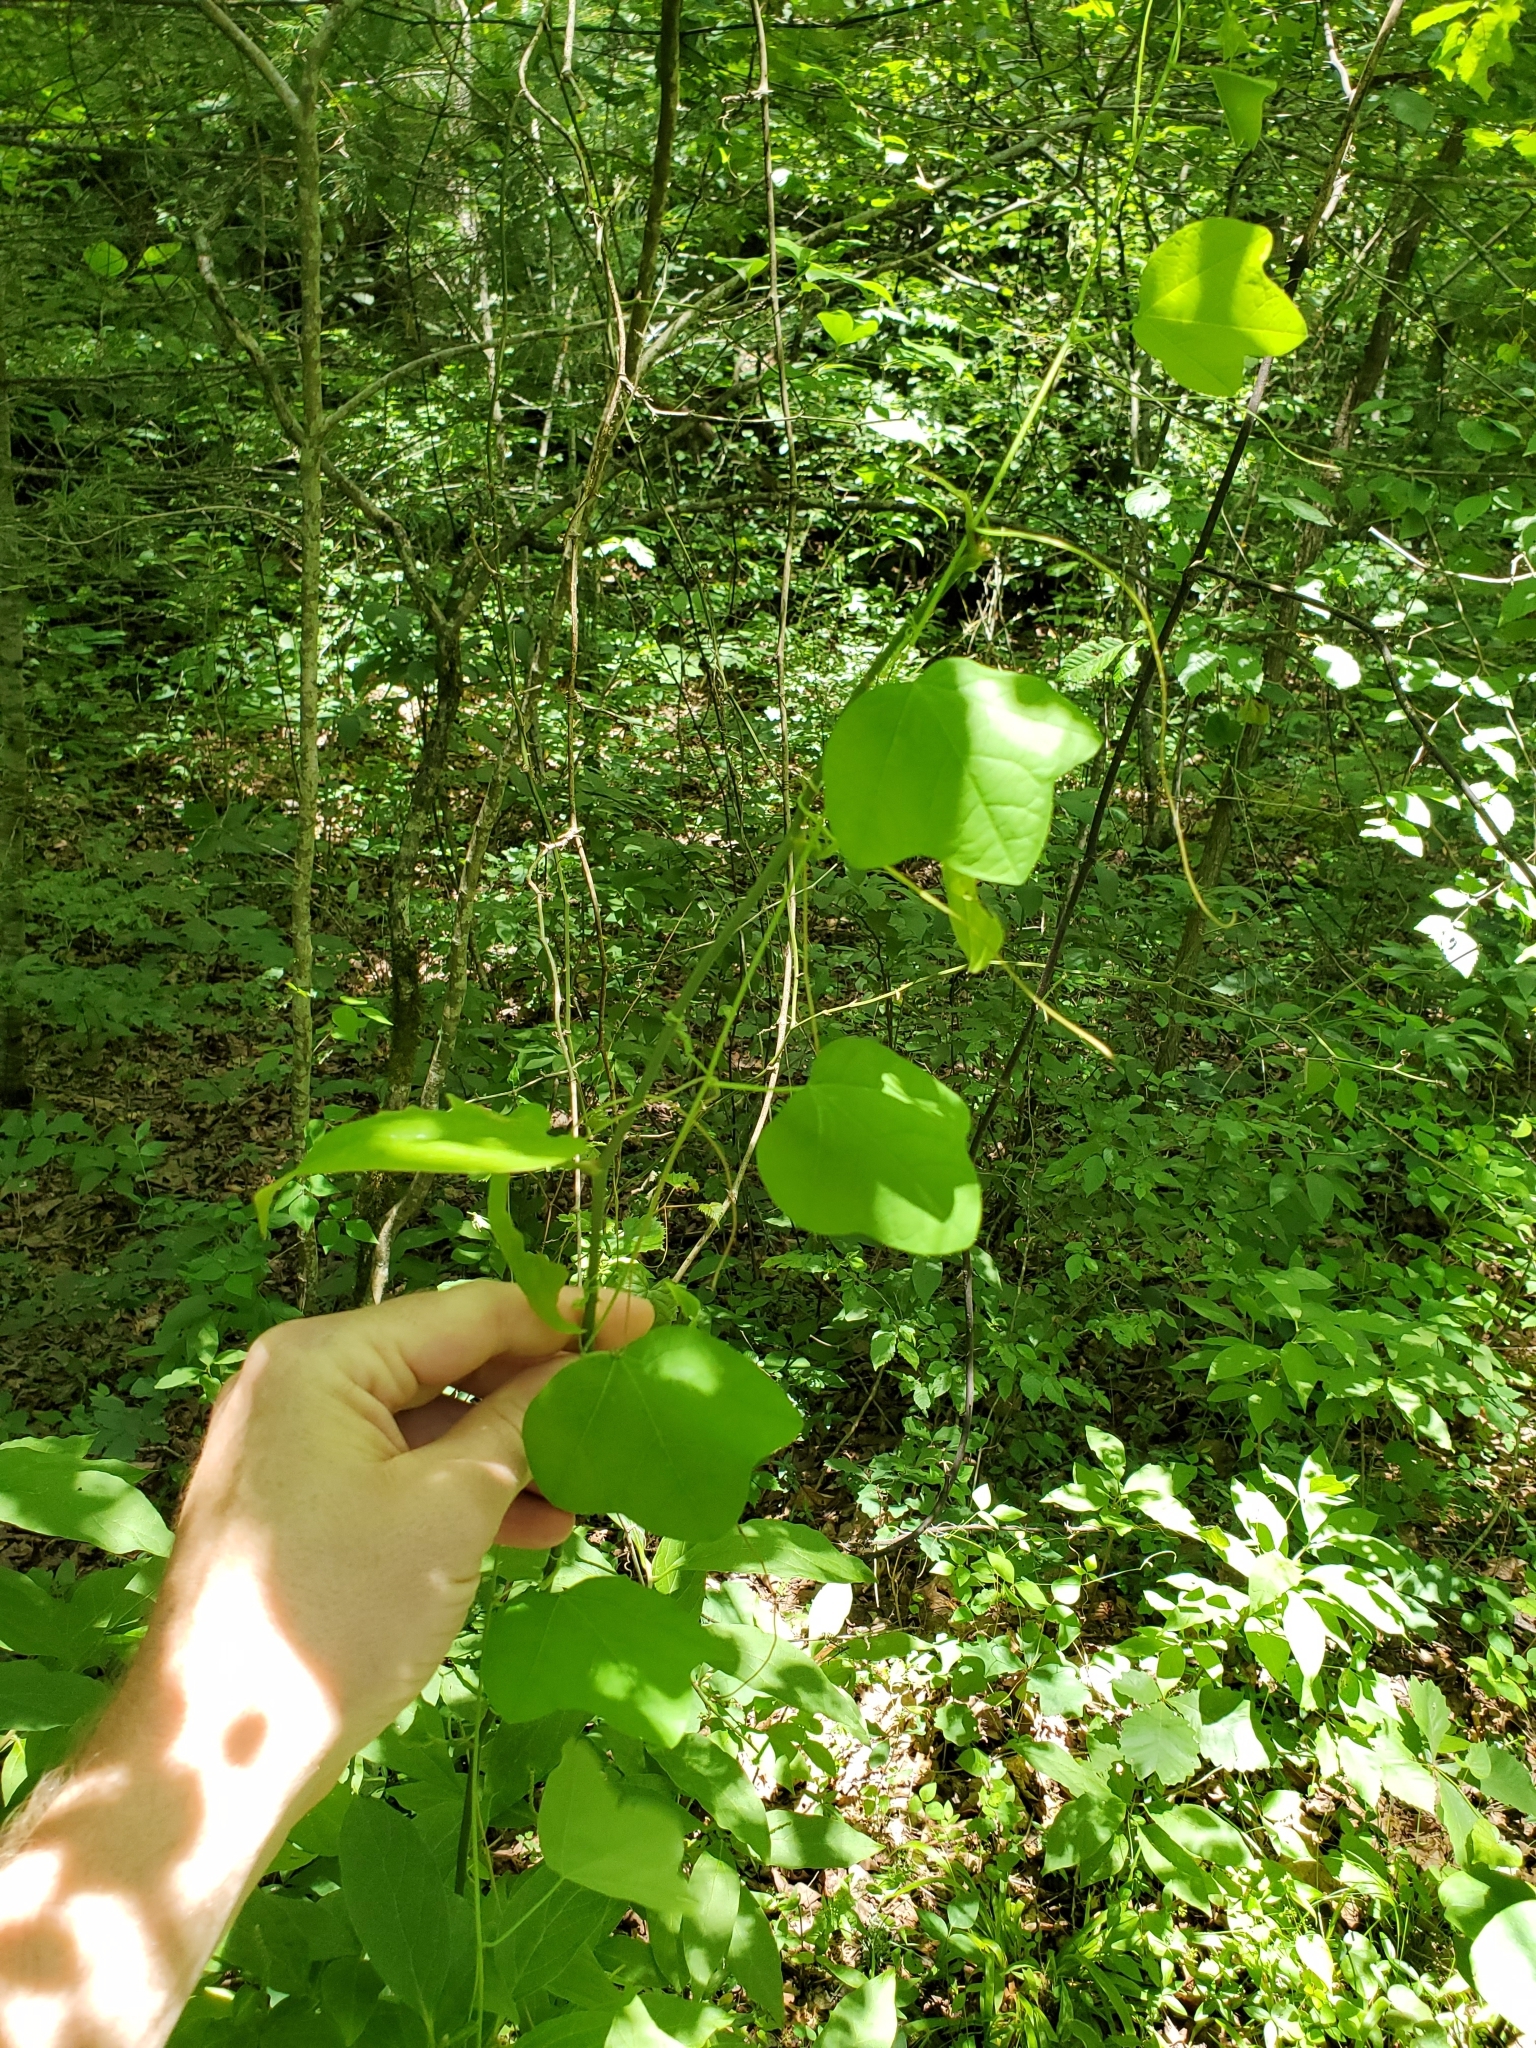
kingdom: Plantae
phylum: Tracheophyta
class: Magnoliopsida
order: Malpighiales
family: Passifloraceae
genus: Passiflora
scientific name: Passiflora lutea
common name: Yellow passionflower
